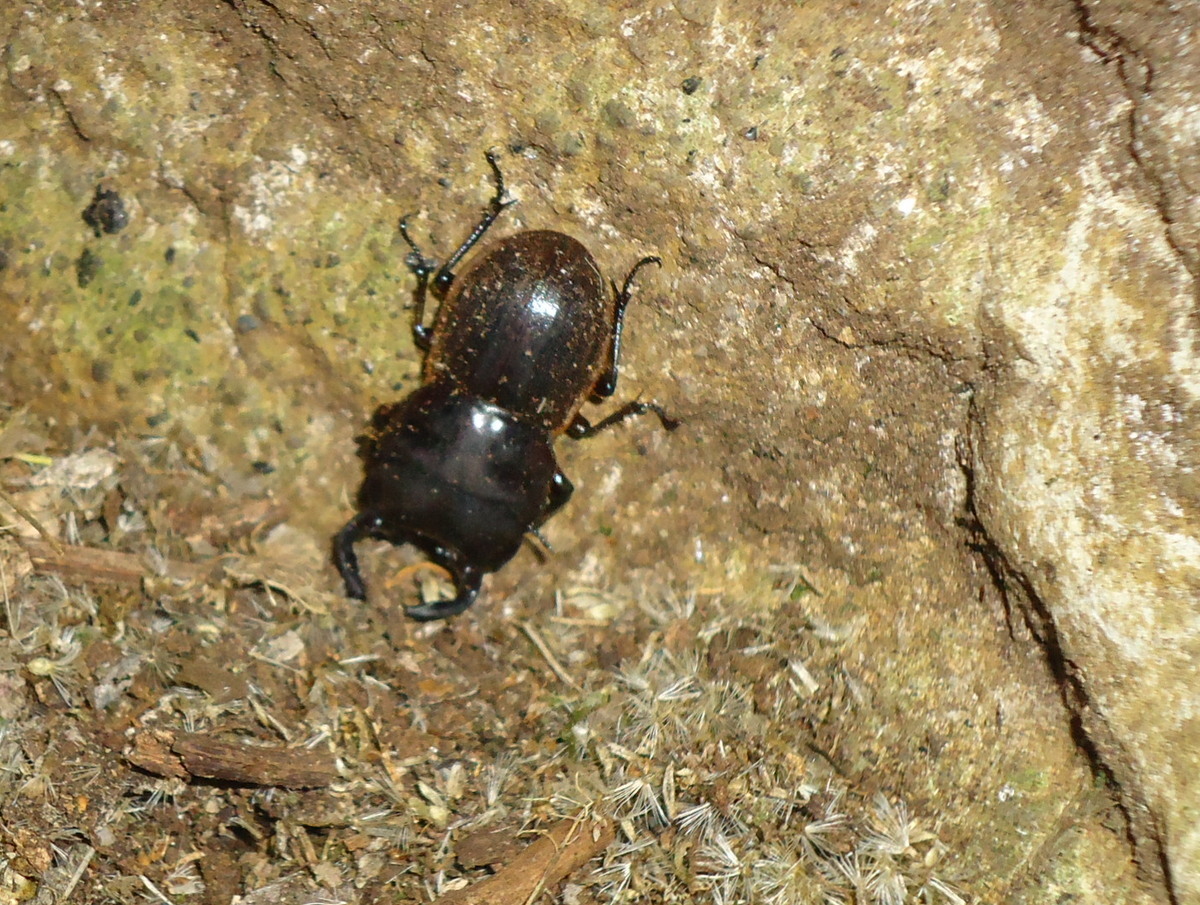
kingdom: Animalia
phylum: Arthropoda
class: Insecta
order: Coleoptera
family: Lucanidae
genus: Geodorcus
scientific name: Geodorcus capito
